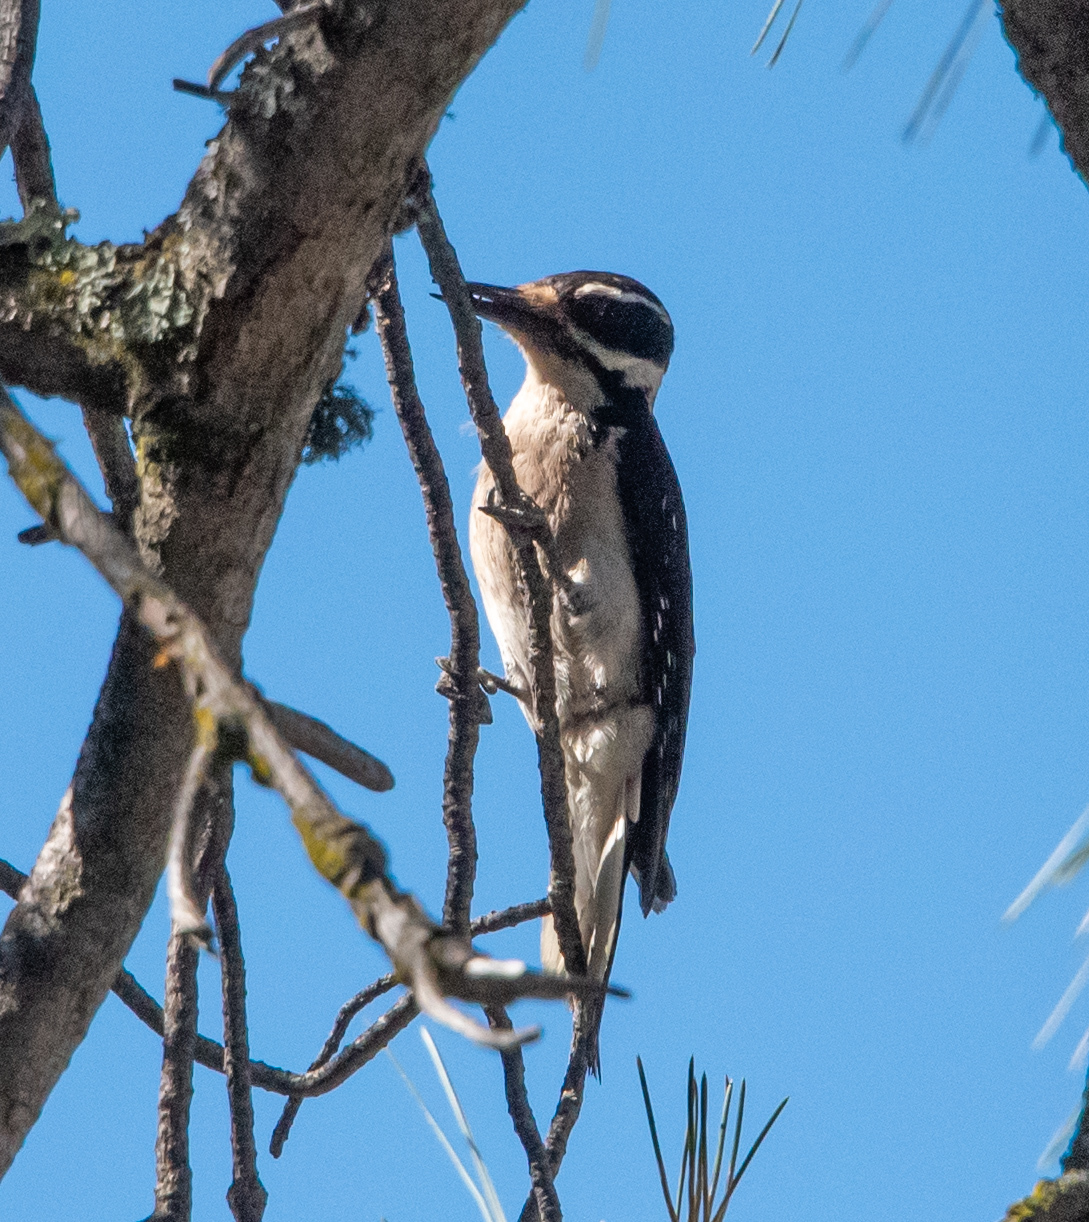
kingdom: Animalia
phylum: Chordata
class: Aves
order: Piciformes
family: Picidae
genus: Leuconotopicus
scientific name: Leuconotopicus villosus
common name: Hairy woodpecker
